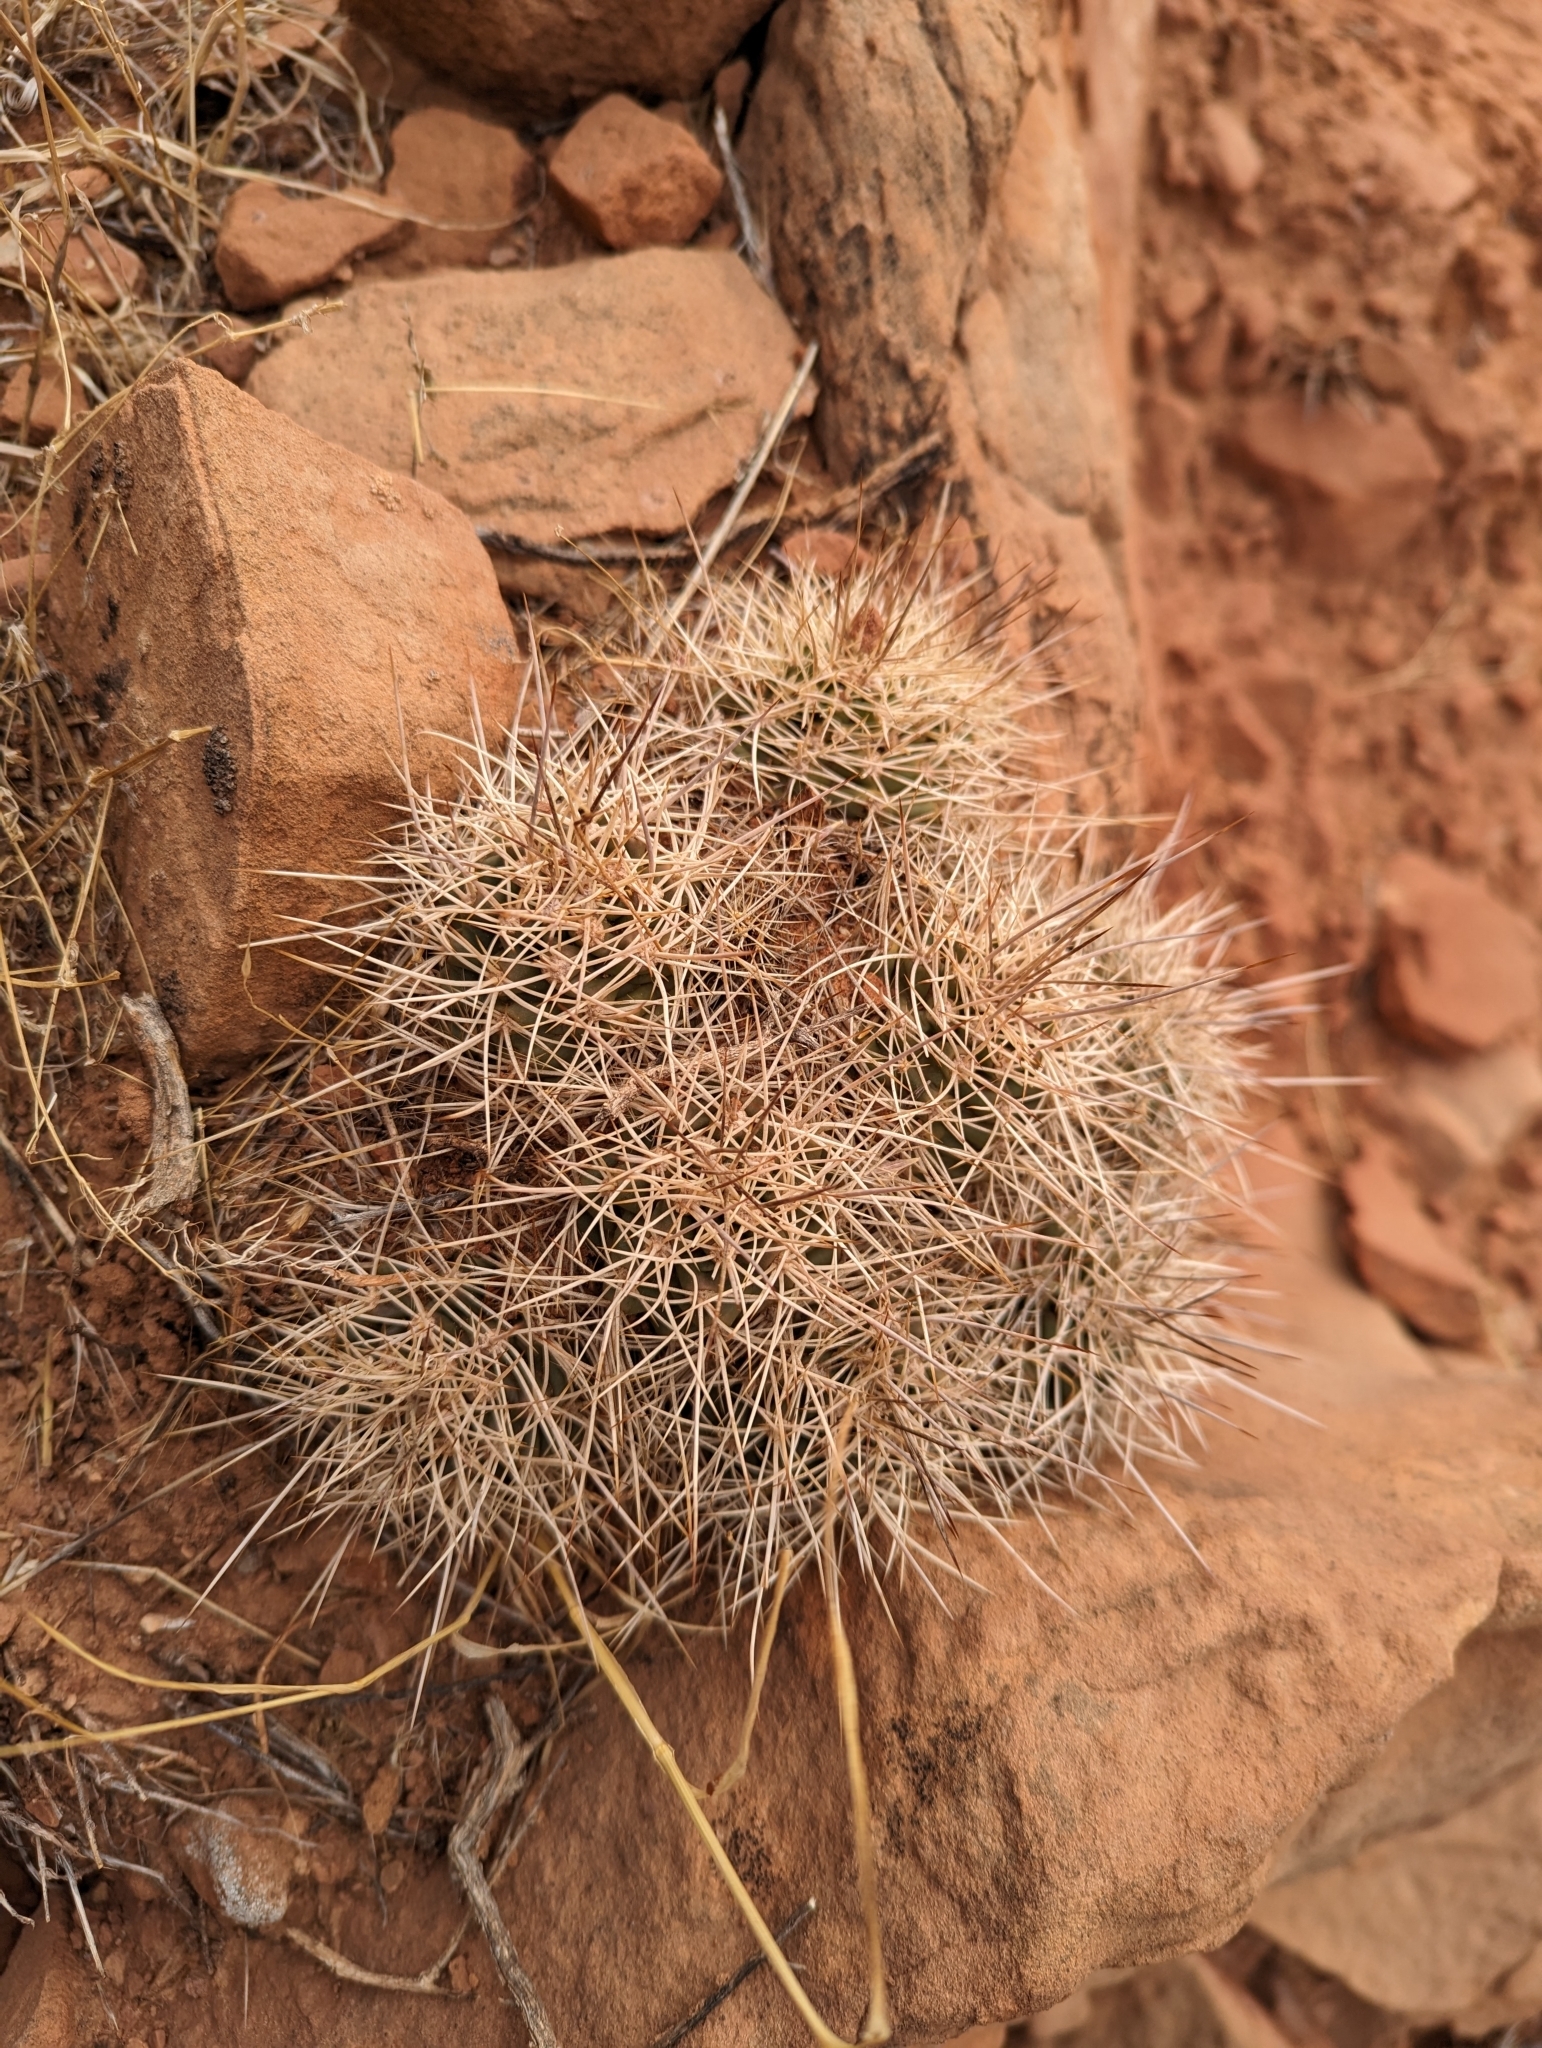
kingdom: Plantae
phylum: Tracheophyta
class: Magnoliopsida
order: Caryophyllales
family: Cactaceae
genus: Echinocereus
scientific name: Echinocereus triglochidiatus
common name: Claretcup hedgehog
